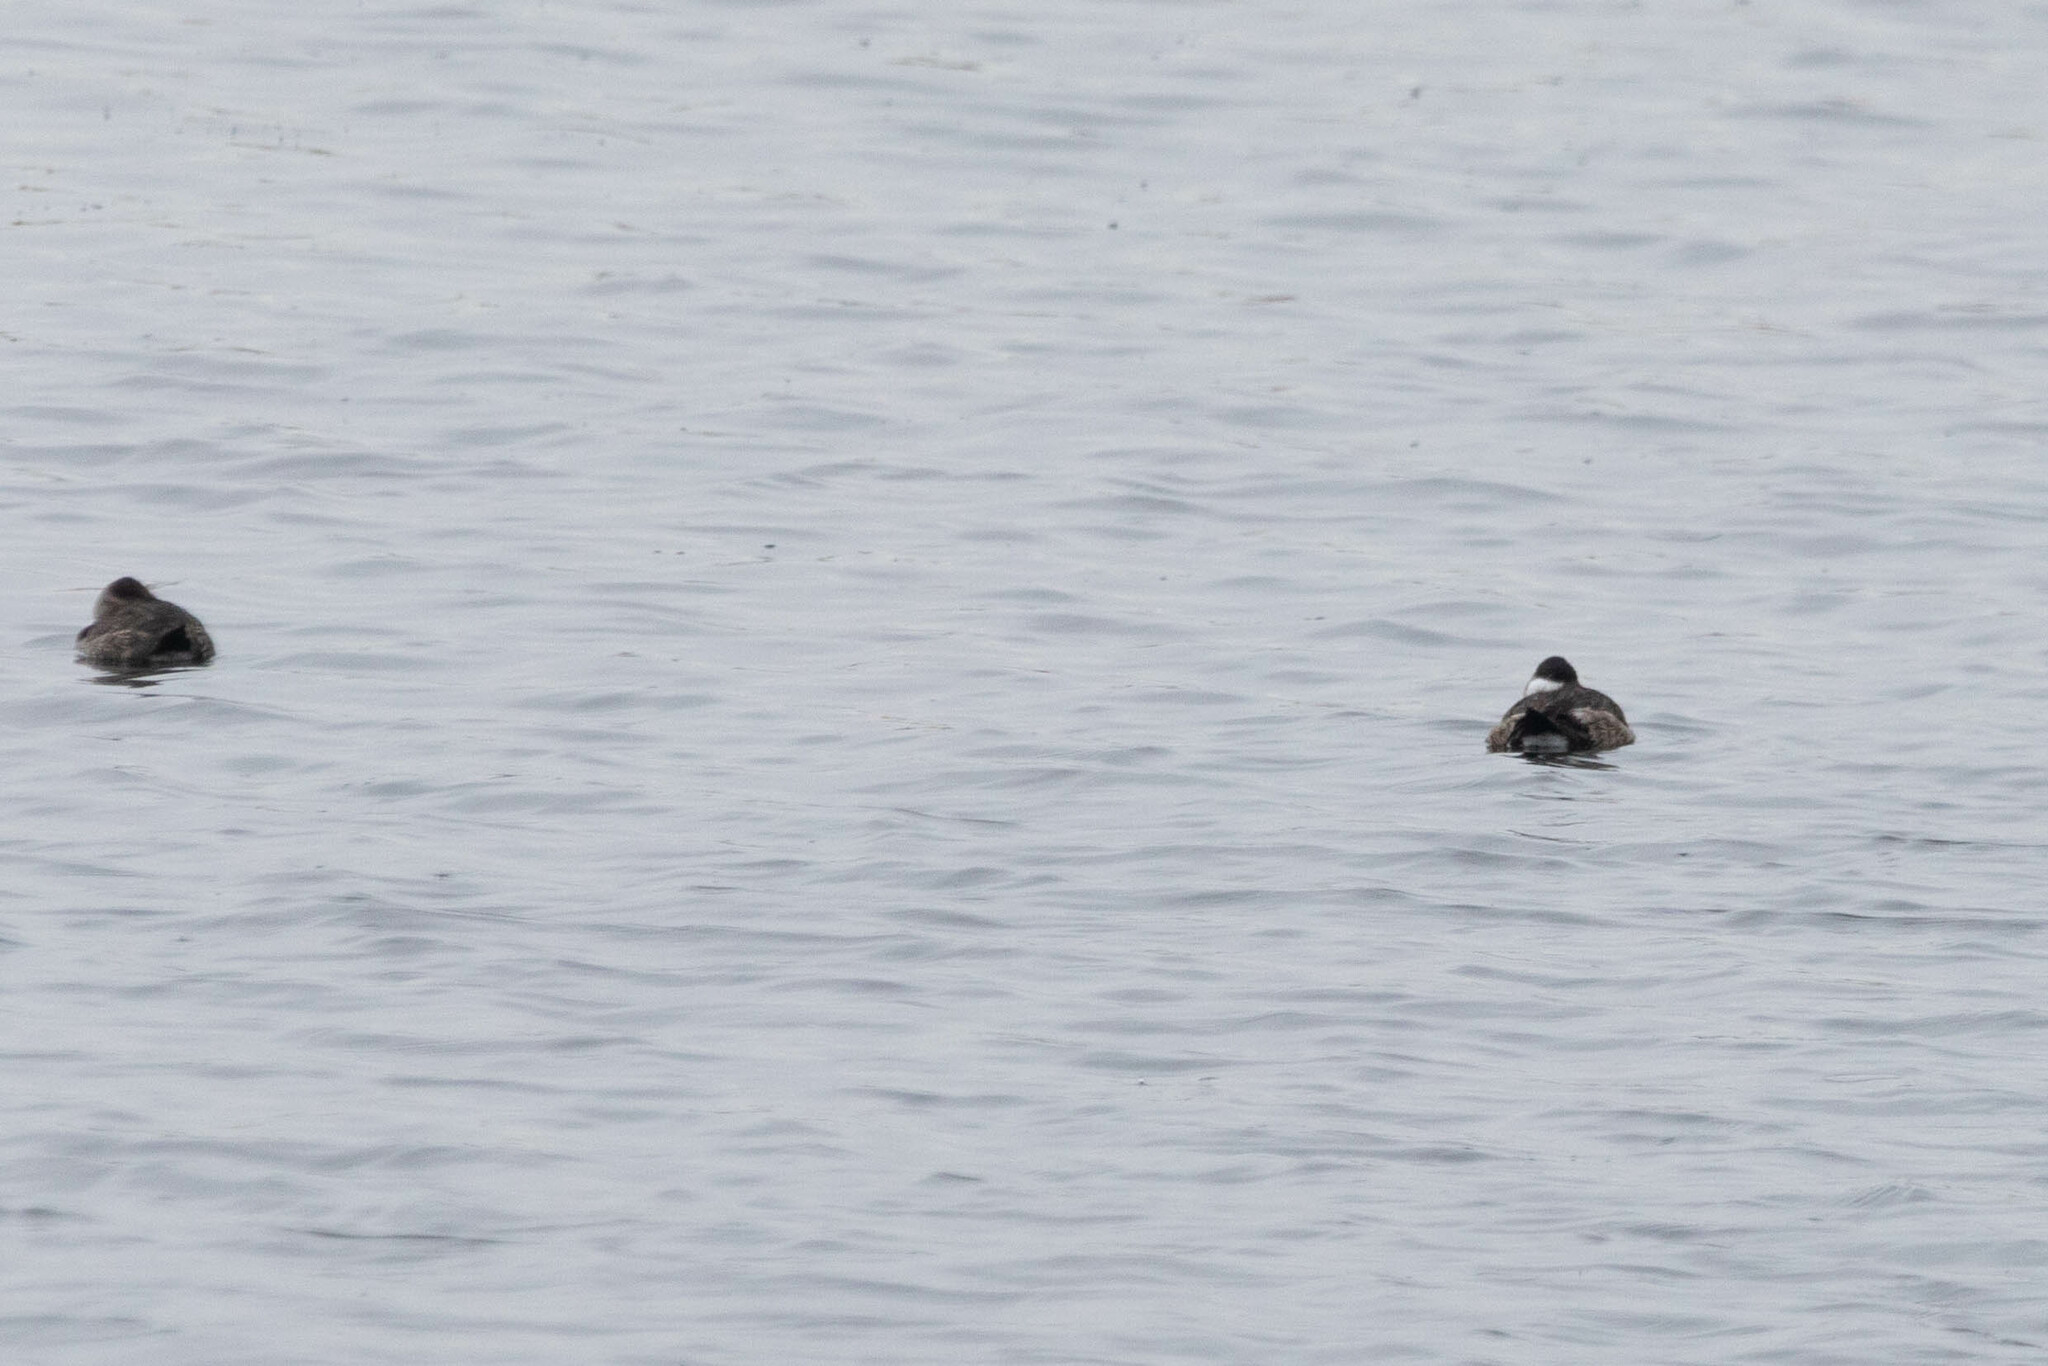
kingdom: Animalia
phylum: Chordata
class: Aves
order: Anseriformes
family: Anatidae
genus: Oxyura
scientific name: Oxyura jamaicensis
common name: Ruddy duck
